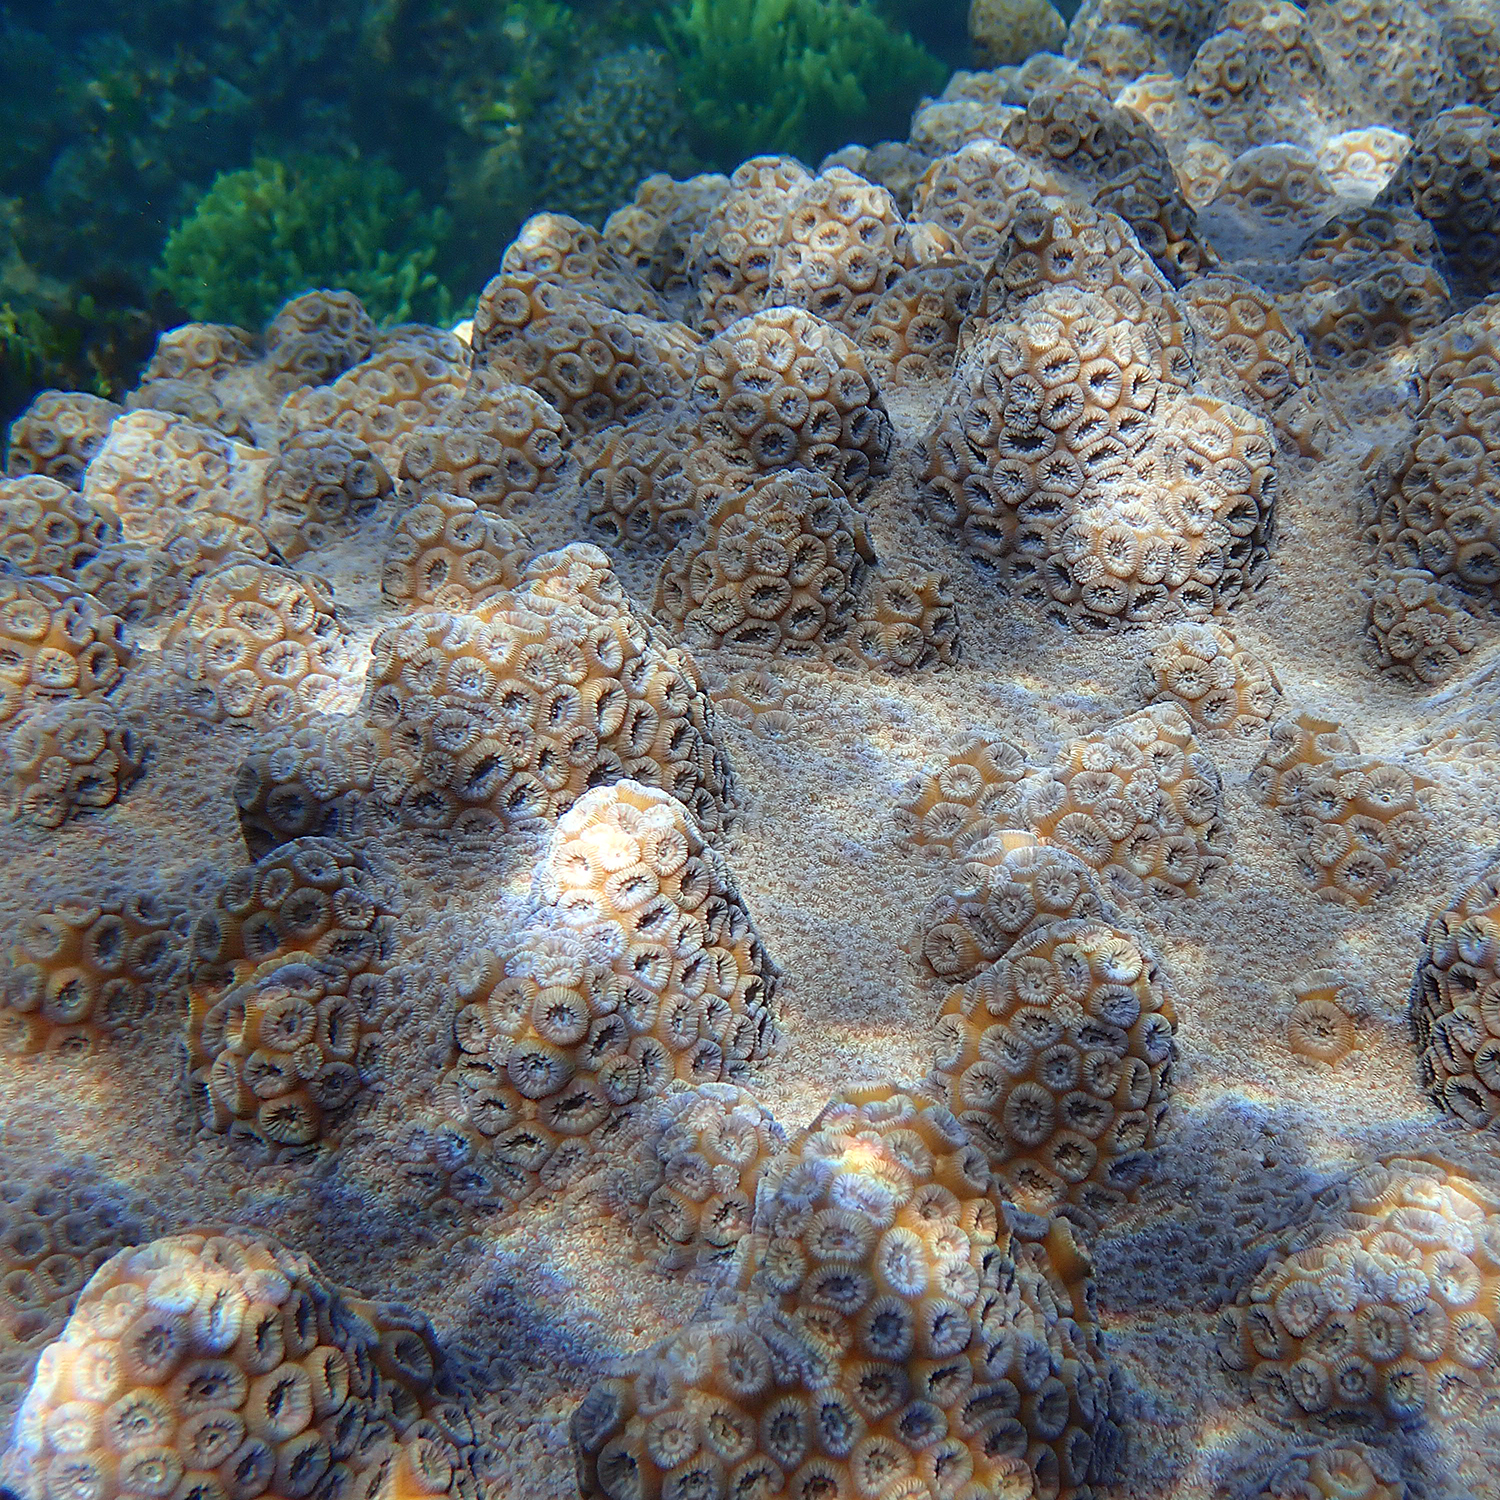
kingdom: Animalia
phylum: Cnidaria
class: Anthozoa
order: Scleractinia
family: Merulinidae
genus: Astrea
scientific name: Astrea curta
